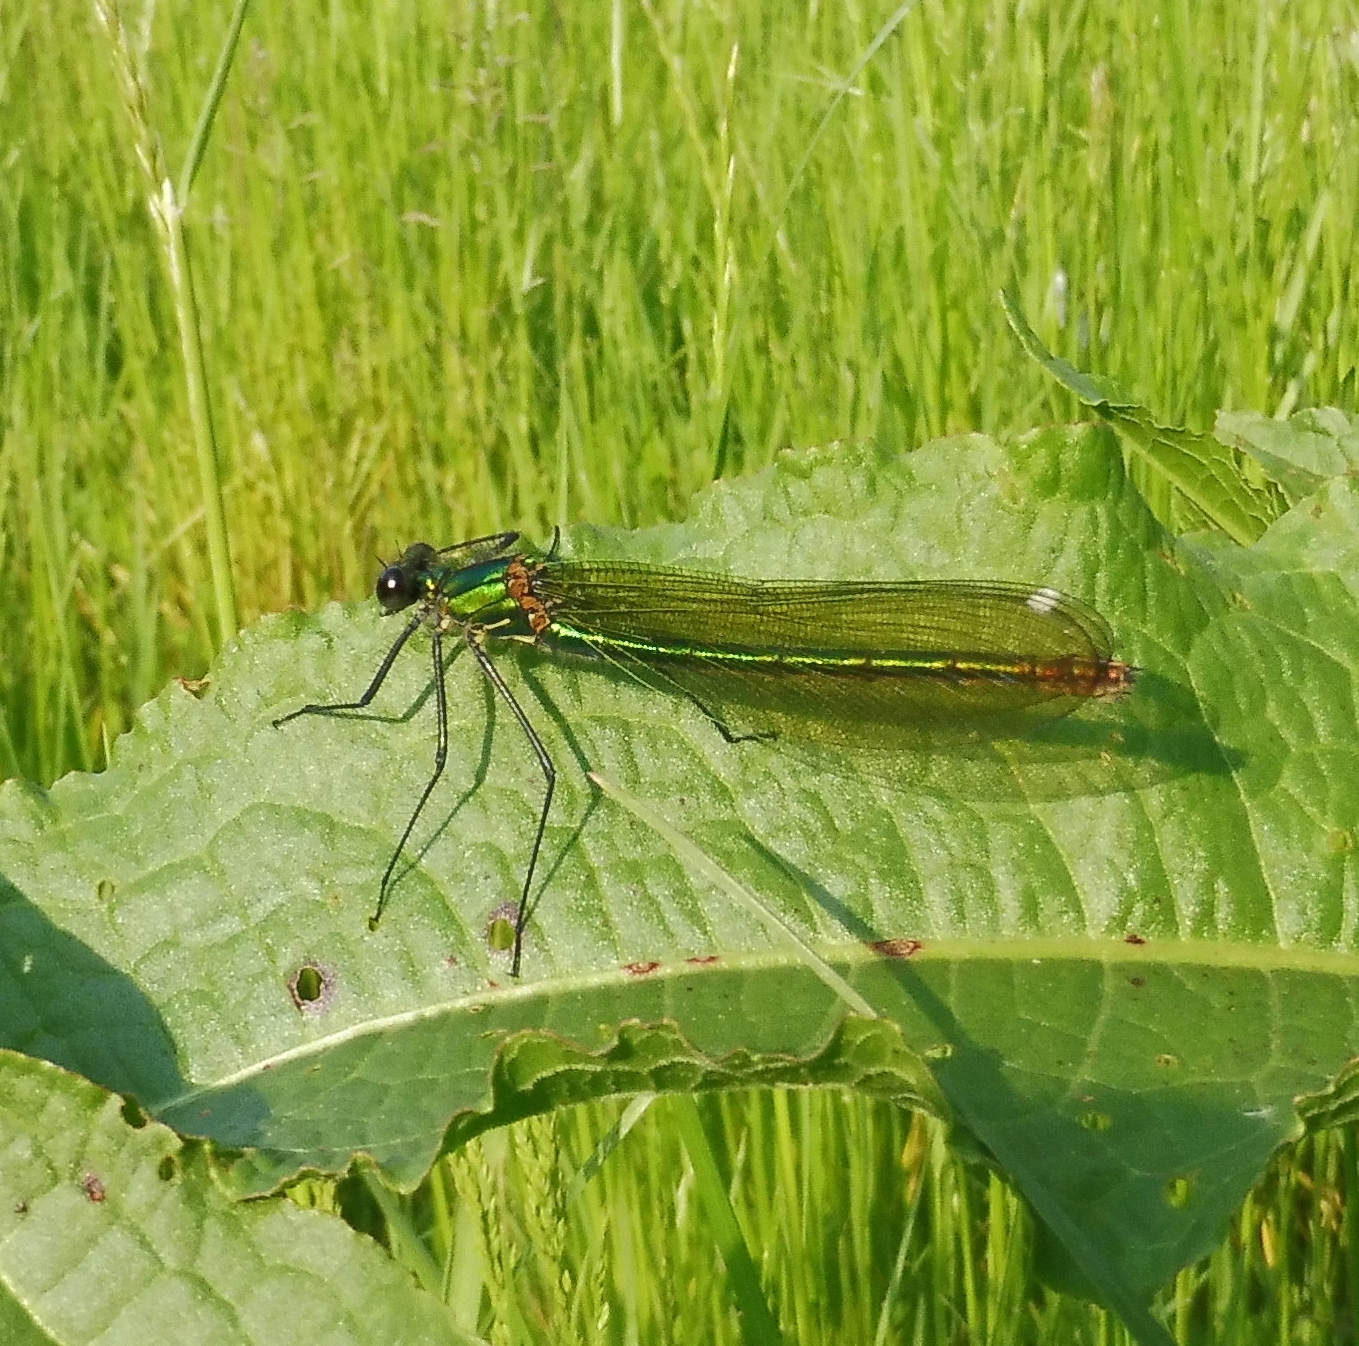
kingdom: Animalia
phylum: Arthropoda
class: Insecta
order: Odonata
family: Calopterygidae
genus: Calopteryx
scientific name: Calopteryx splendens
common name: Banded demoiselle
